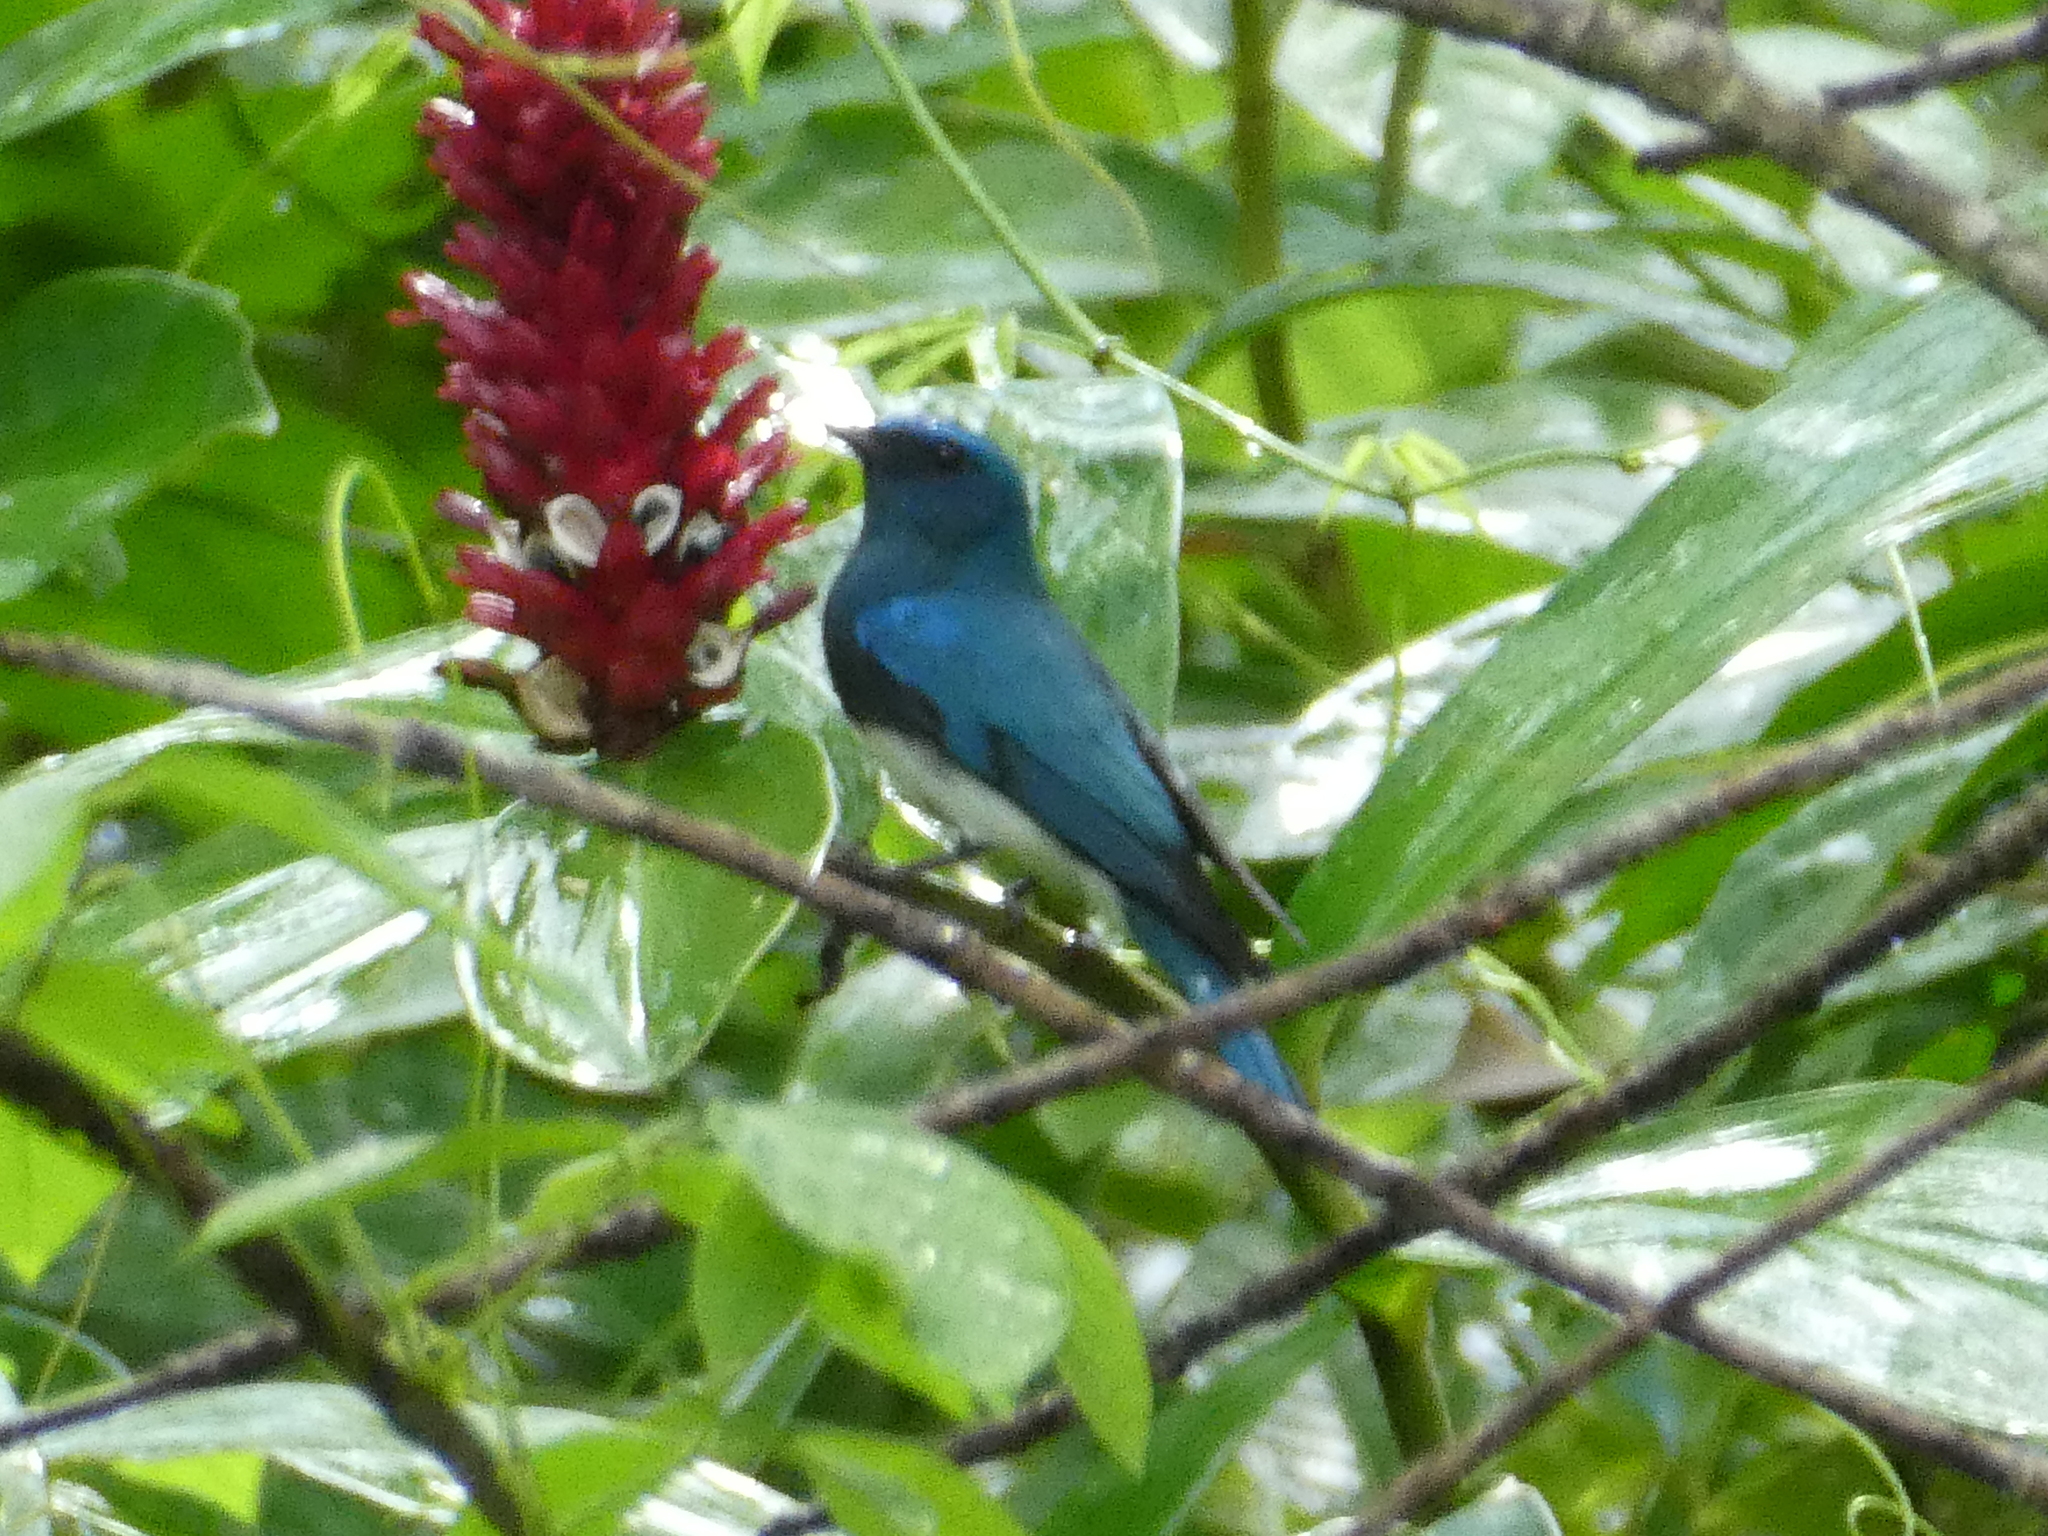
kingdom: Animalia
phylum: Chordata
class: Aves
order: Passeriformes
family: Muscicapidae
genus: Cyanoptila
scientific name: Cyanoptila cumatilis
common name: Zappey's flycatcher
